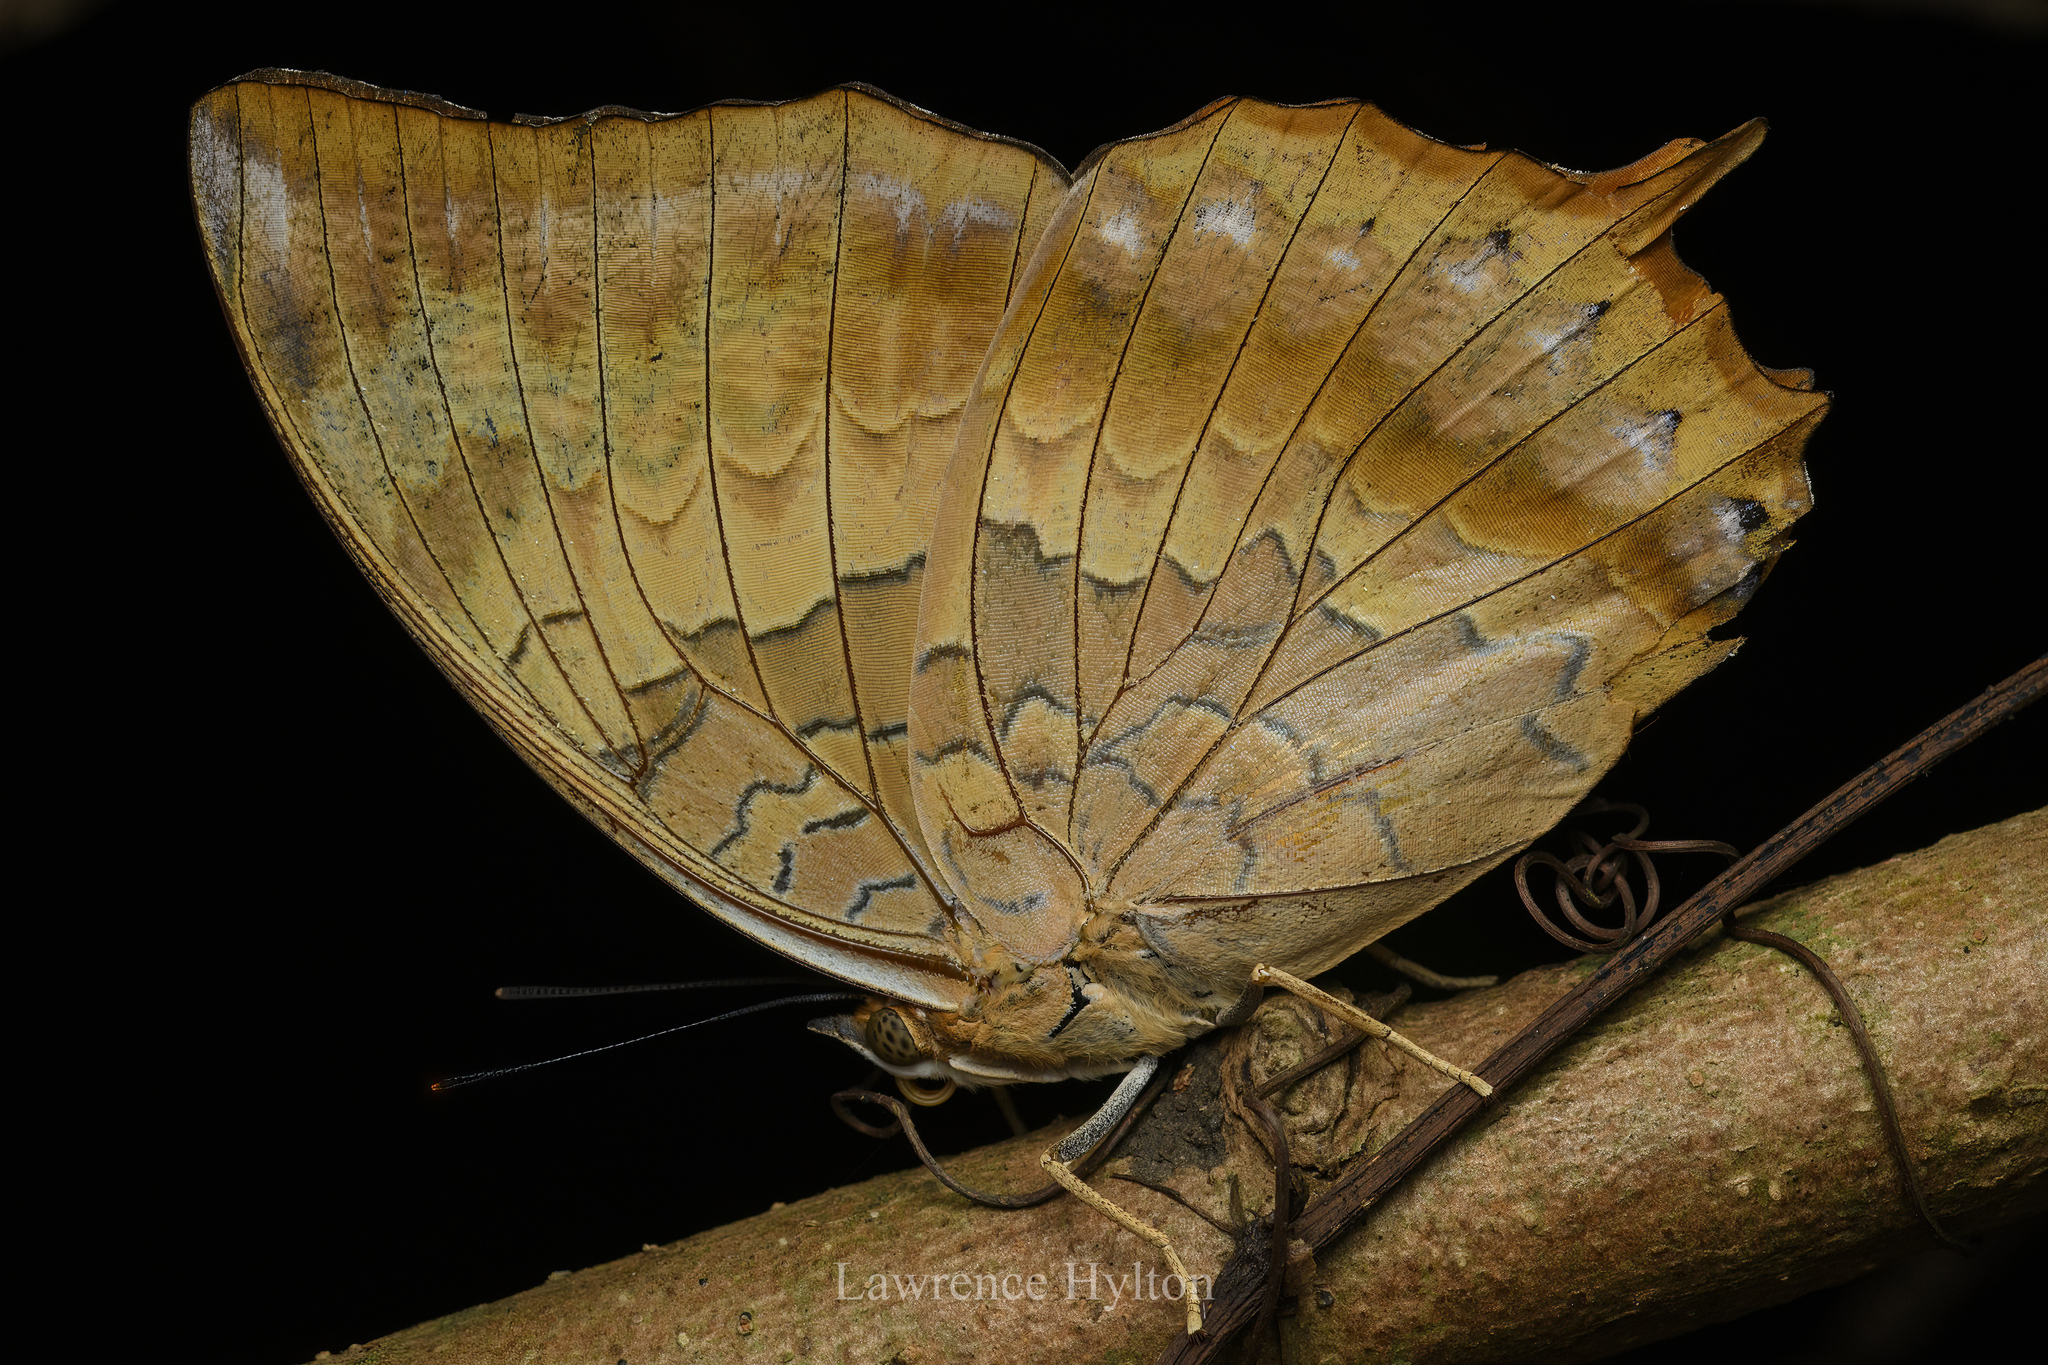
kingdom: Animalia
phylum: Arthropoda
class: Insecta
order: Lepidoptera
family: Nymphalidae
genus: Charaxes
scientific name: Charaxes bernardus
